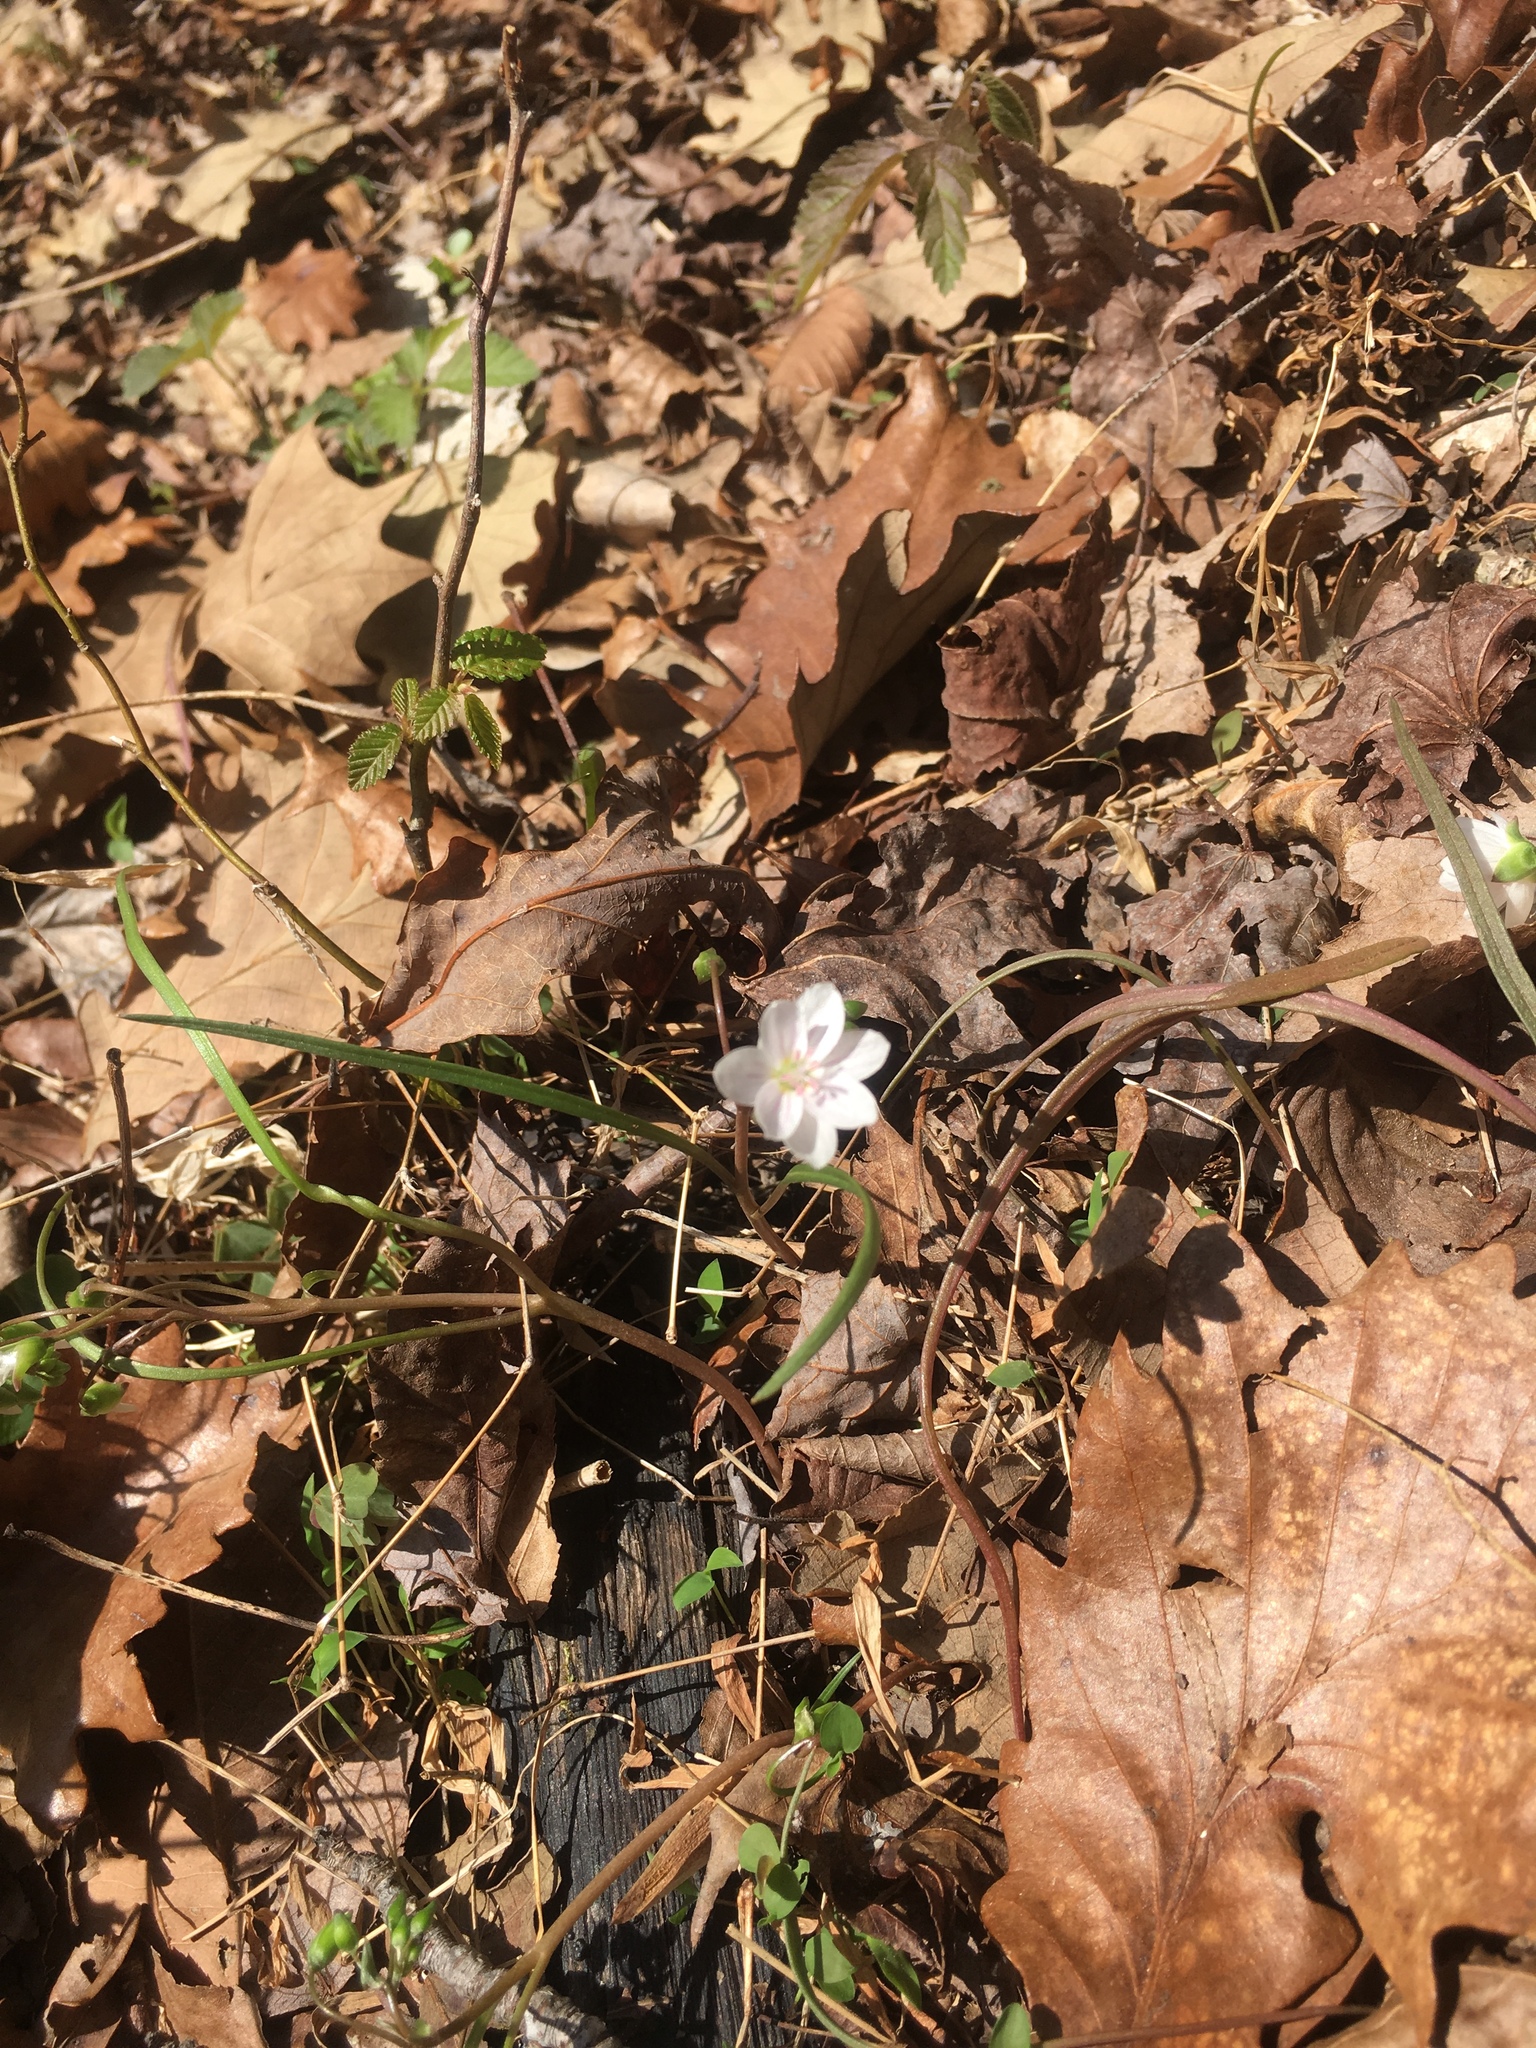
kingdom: Plantae
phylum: Tracheophyta
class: Magnoliopsida
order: Caryophyllales
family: Montiaceae
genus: Claytonia
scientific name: Claytonia virginica
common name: Virginia springbeauty
